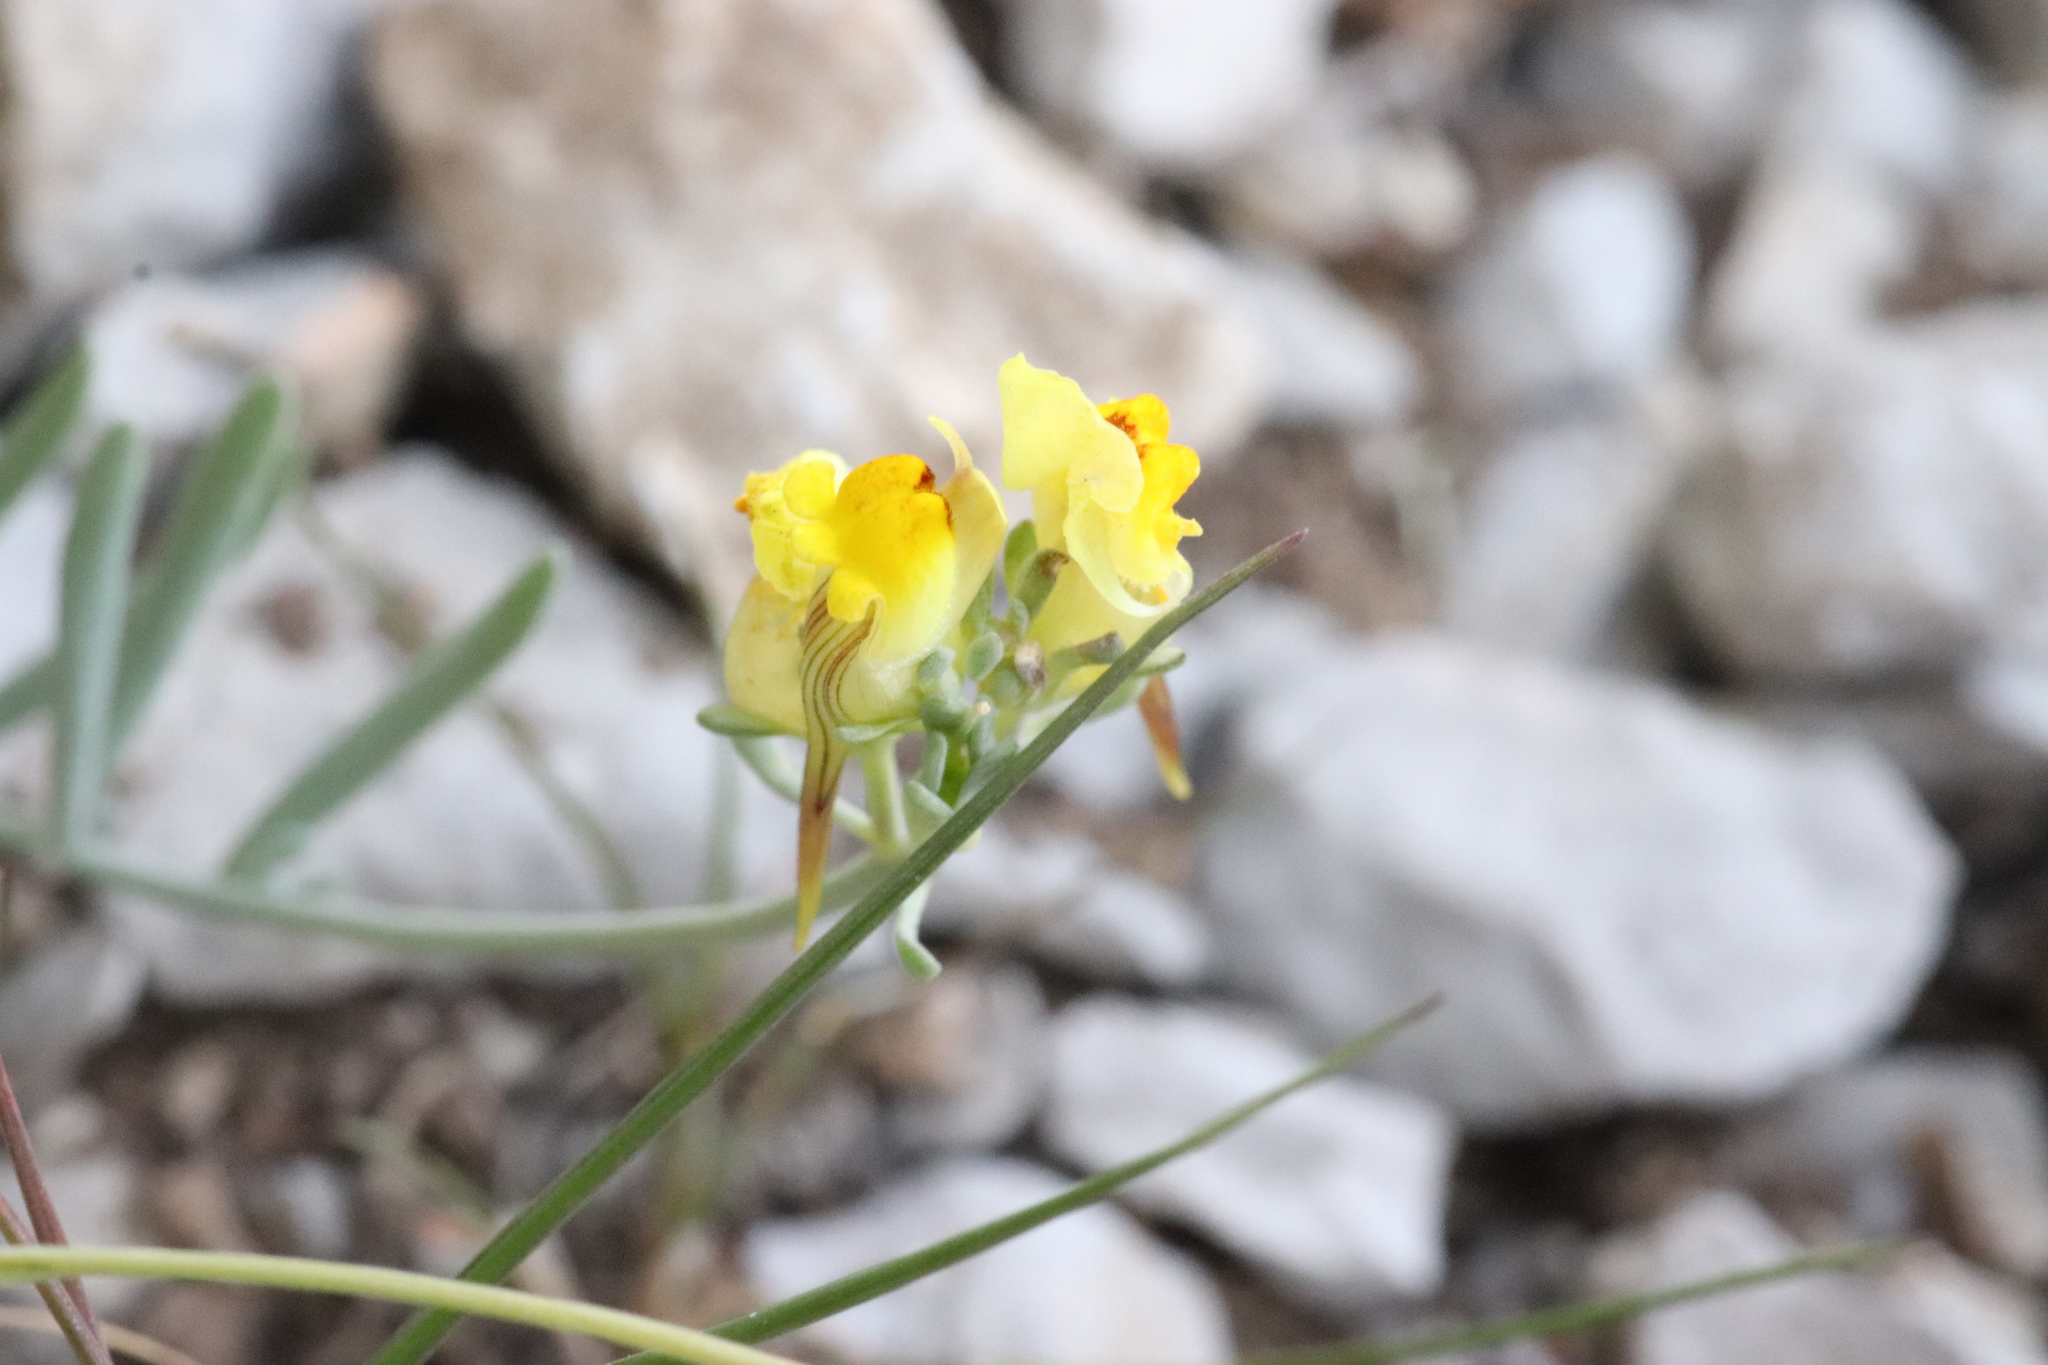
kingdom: Plantae
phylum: Tracheophyta
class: Magnoliopsida
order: Lamiales
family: Plantaginaceae
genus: Linaria
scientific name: Linaria supina
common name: Prostrate toadflax
